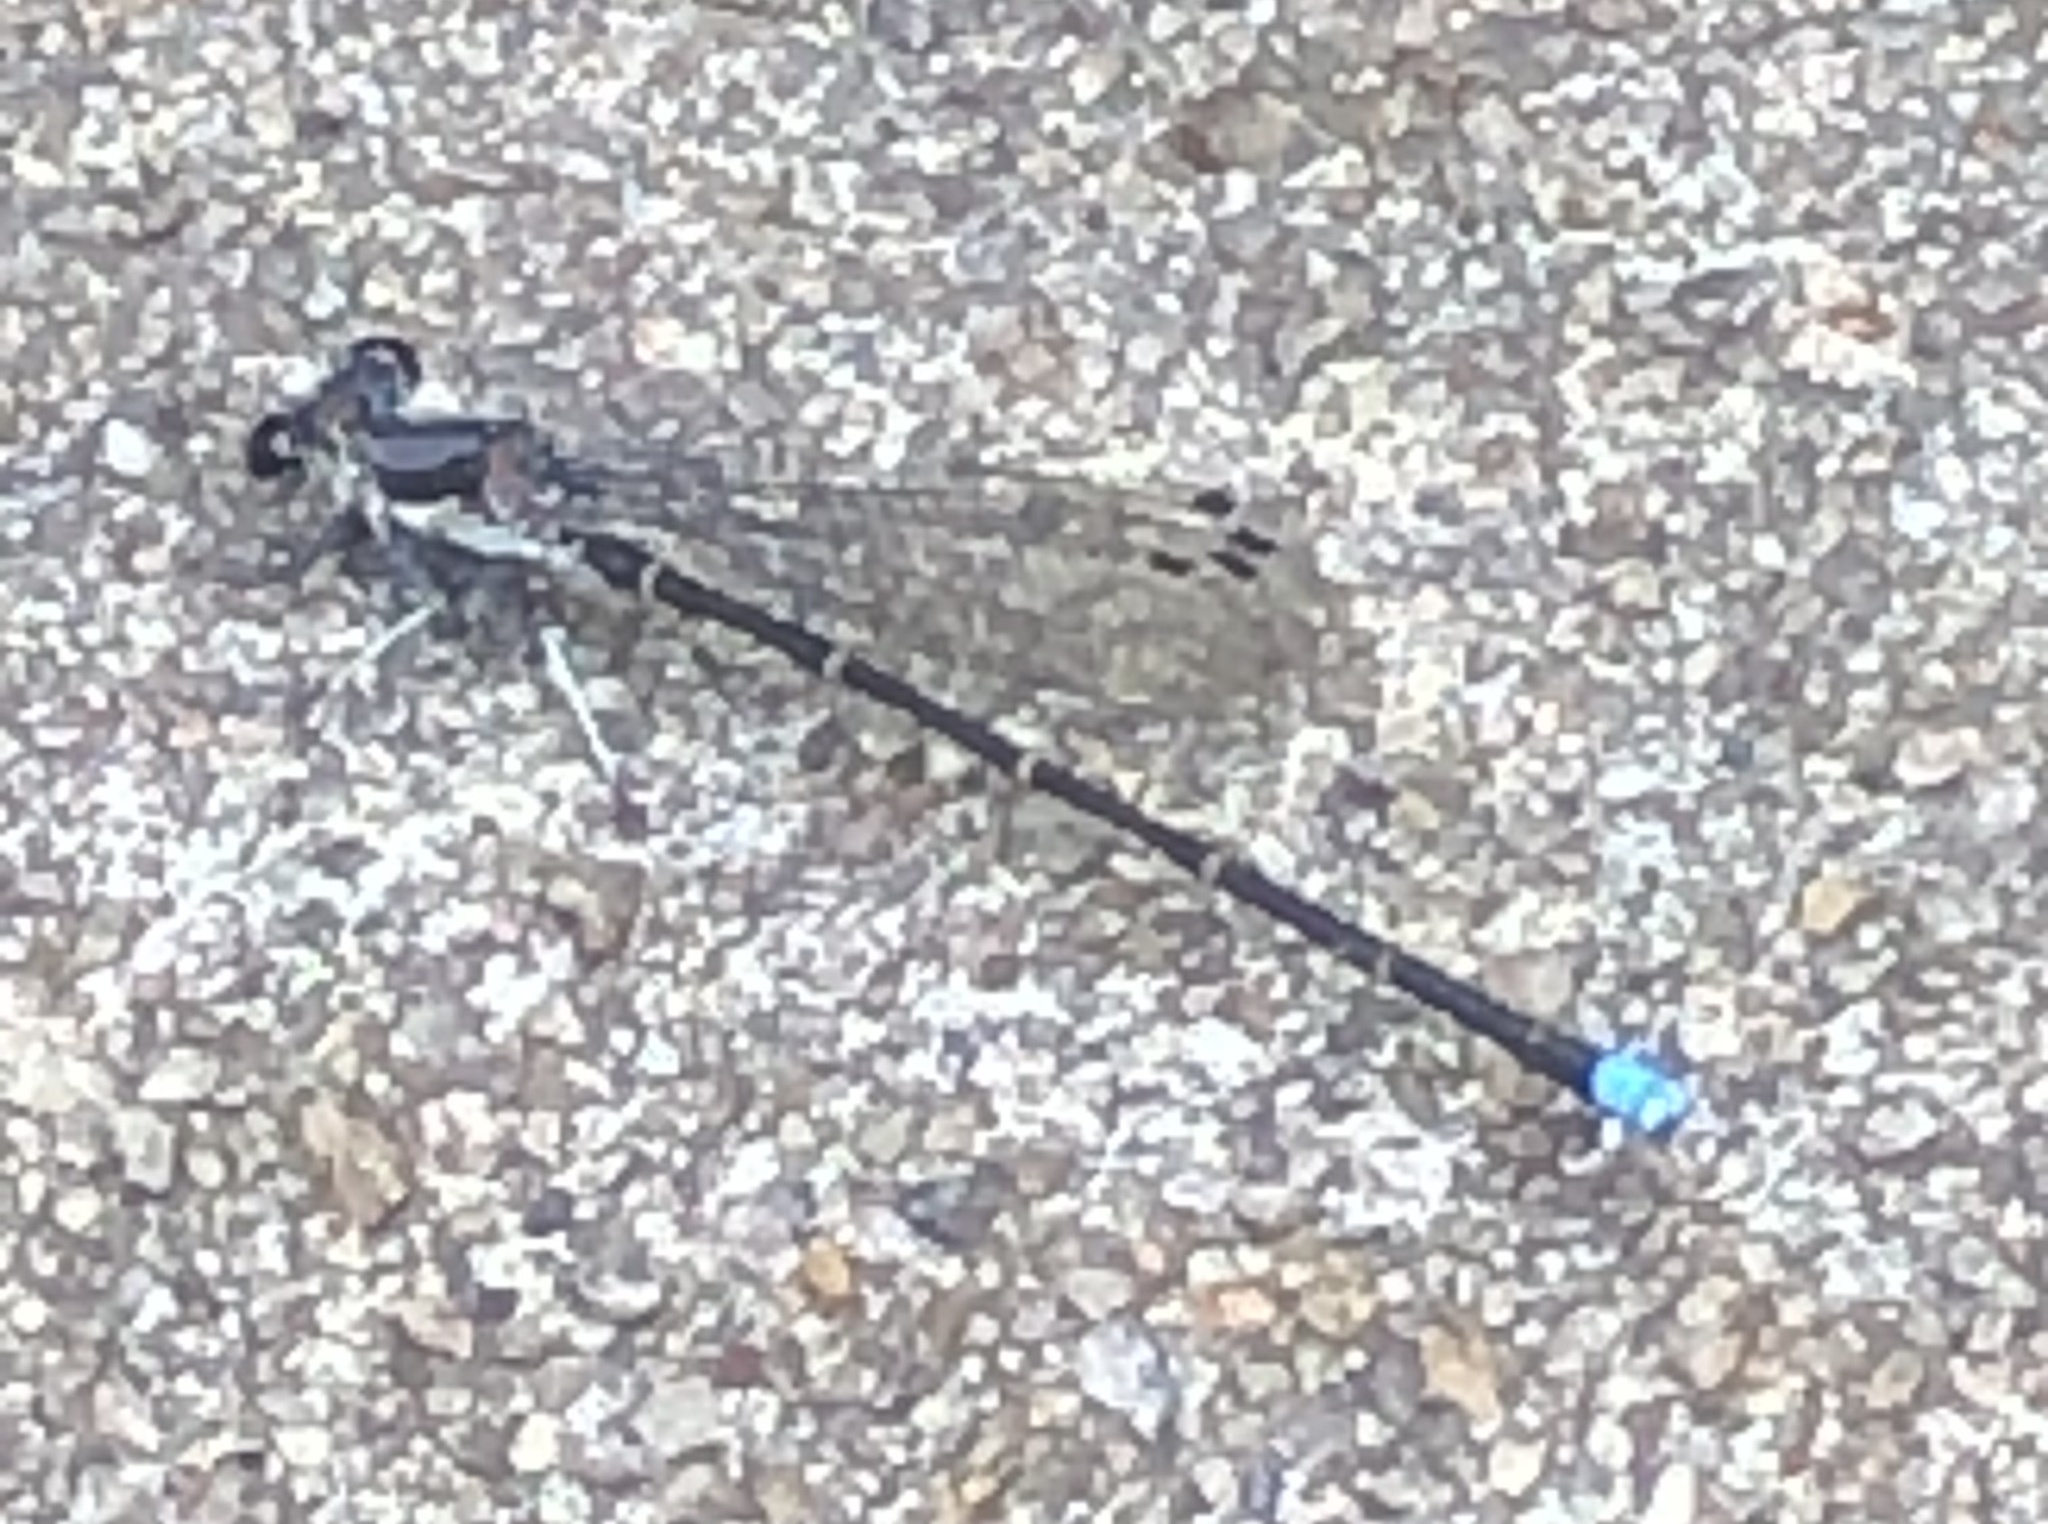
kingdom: Animalia
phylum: Arthropoda
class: Insecta
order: Odonata
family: Coenagrionidae
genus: Argia
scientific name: Argia tibialis
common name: Blue-tipped dancer
